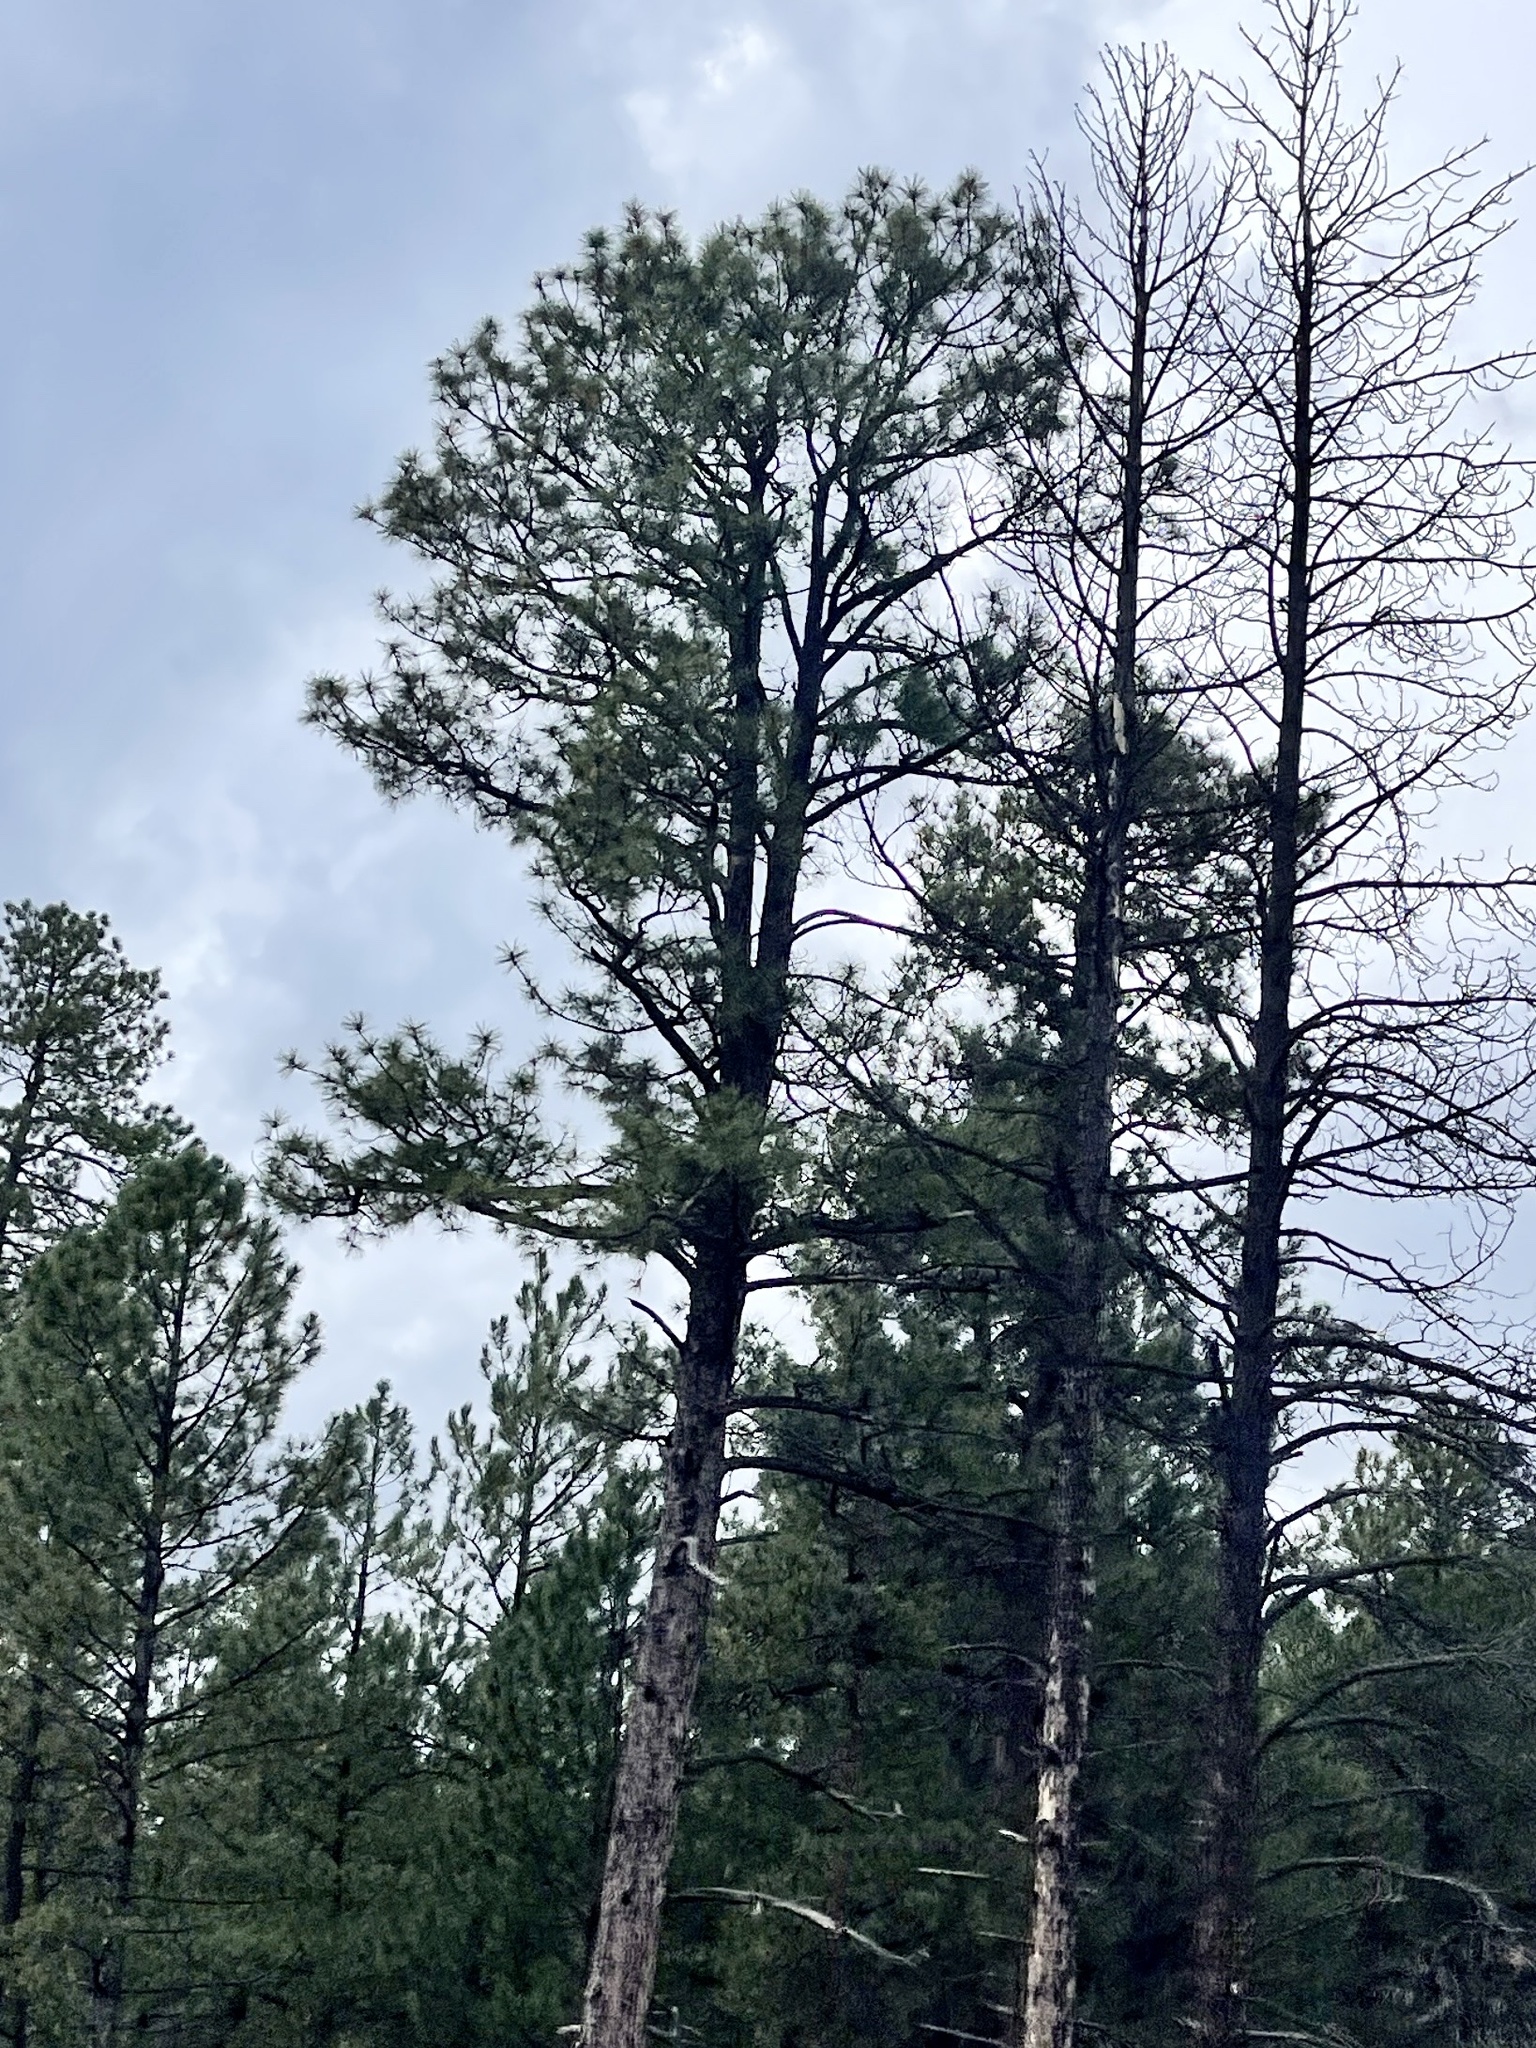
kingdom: Plantae
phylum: Tracheophyta
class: Pinopsida
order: Pinales
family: Pinaceae
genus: Pinus
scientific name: Pinus ponderosa
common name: Western yellow-pine
